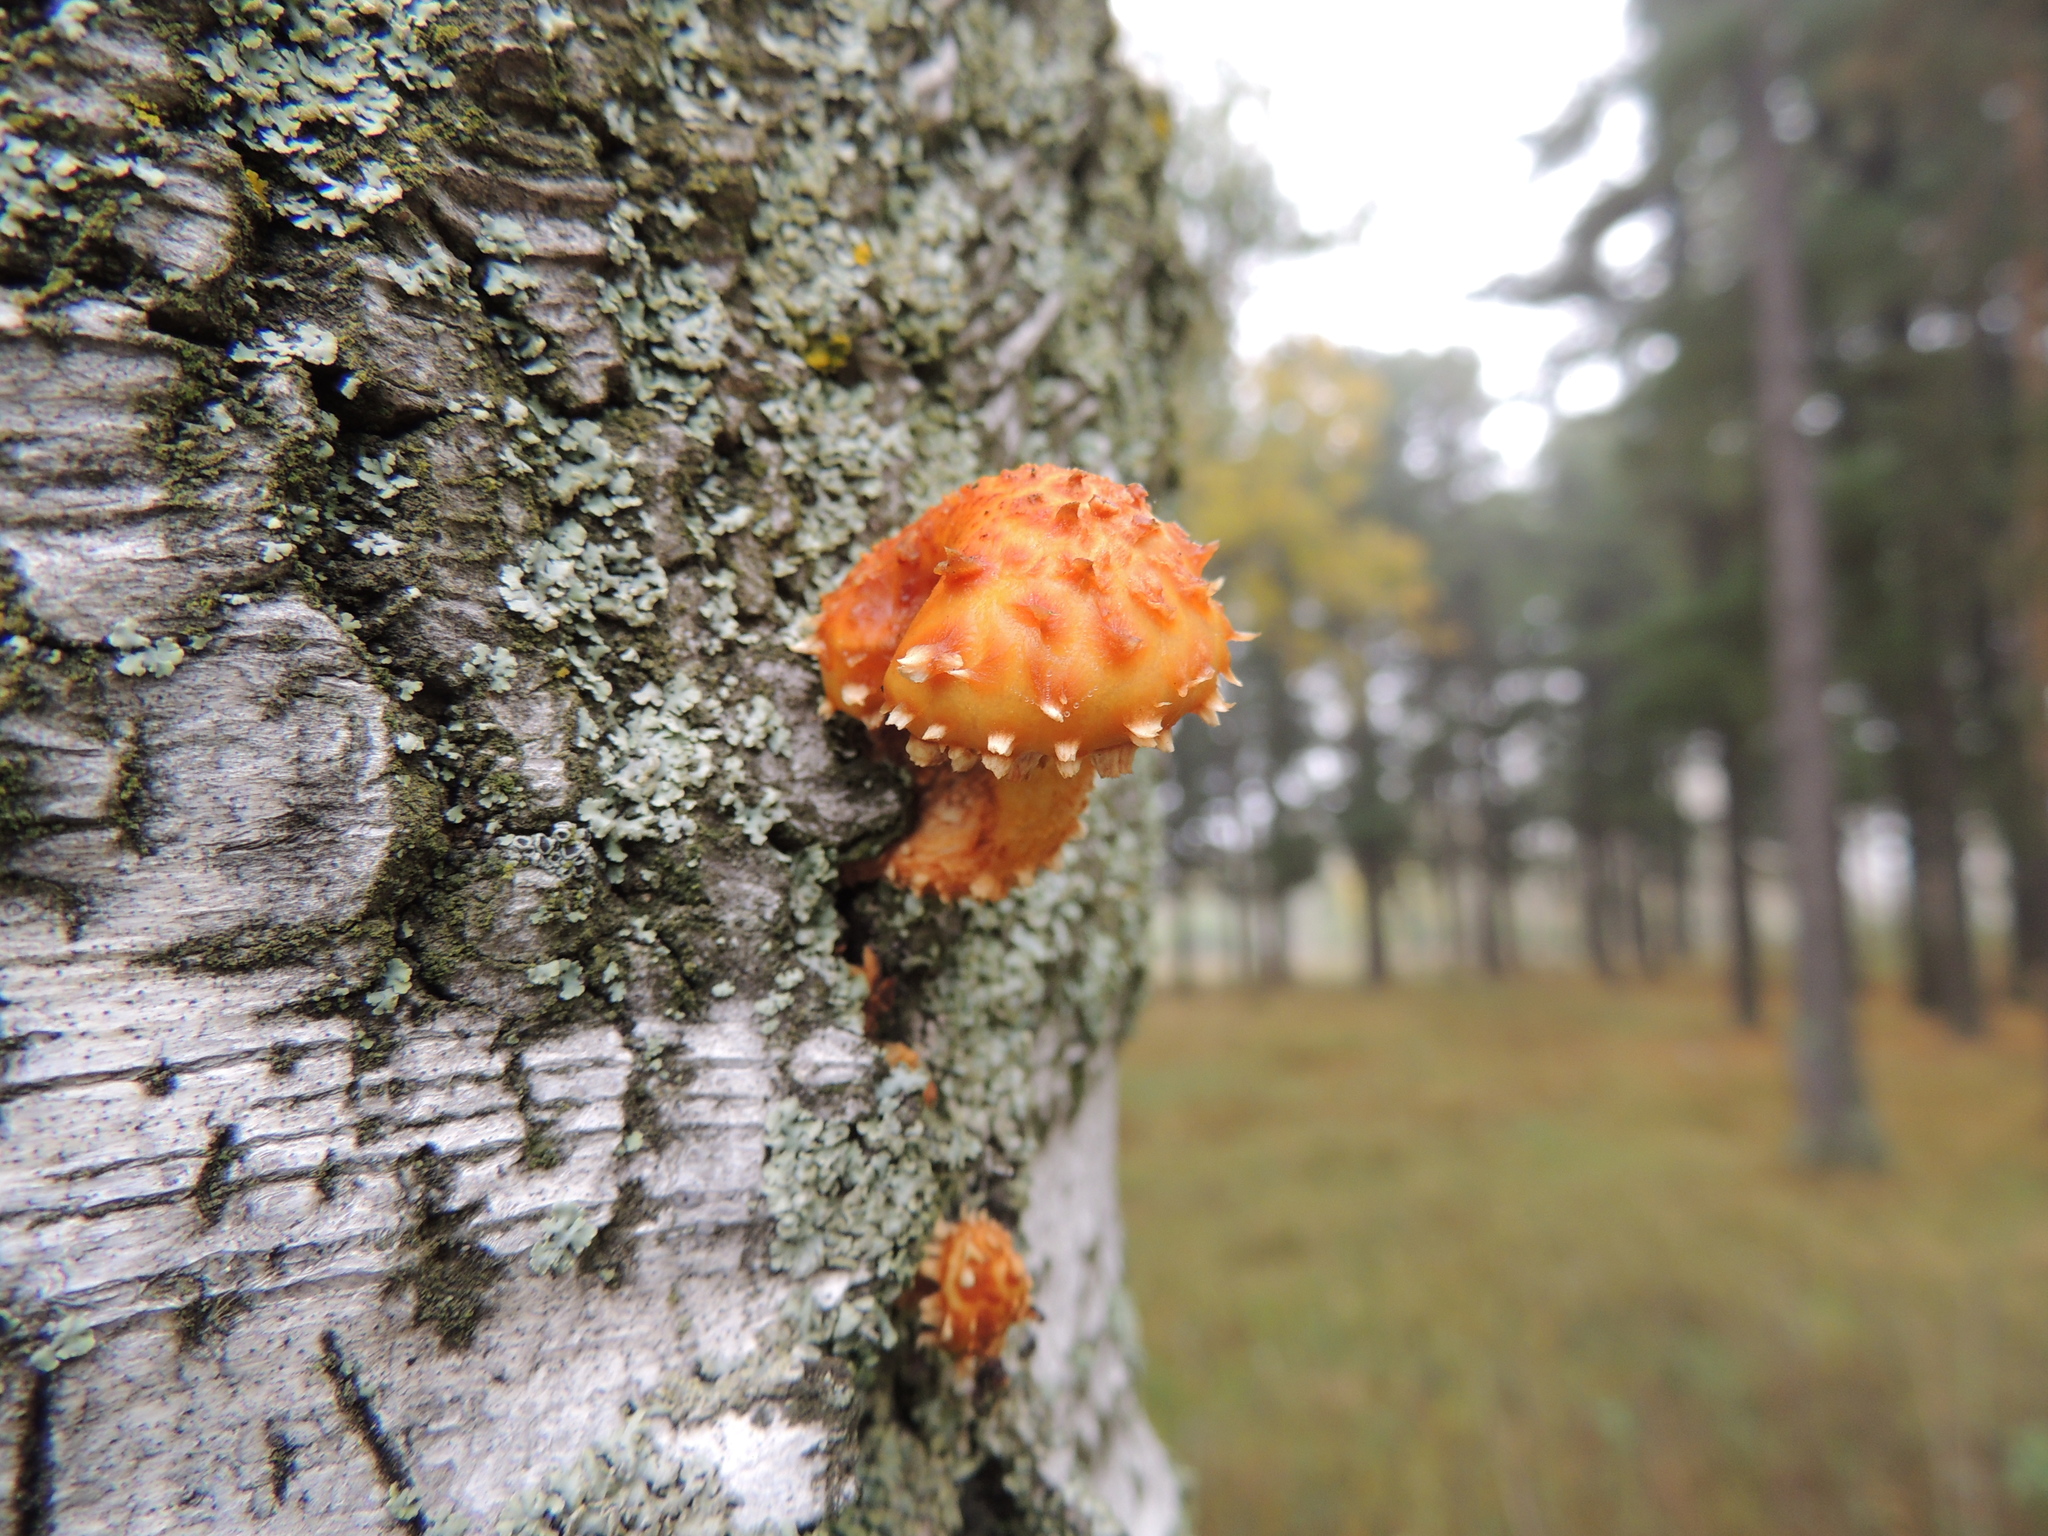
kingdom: Fungi
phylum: Basidiomycota
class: Agaricomycetes
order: Agaricales
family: Strophariaceae
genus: Pholiota
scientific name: Pholiota aurivella
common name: Golden scalycap
